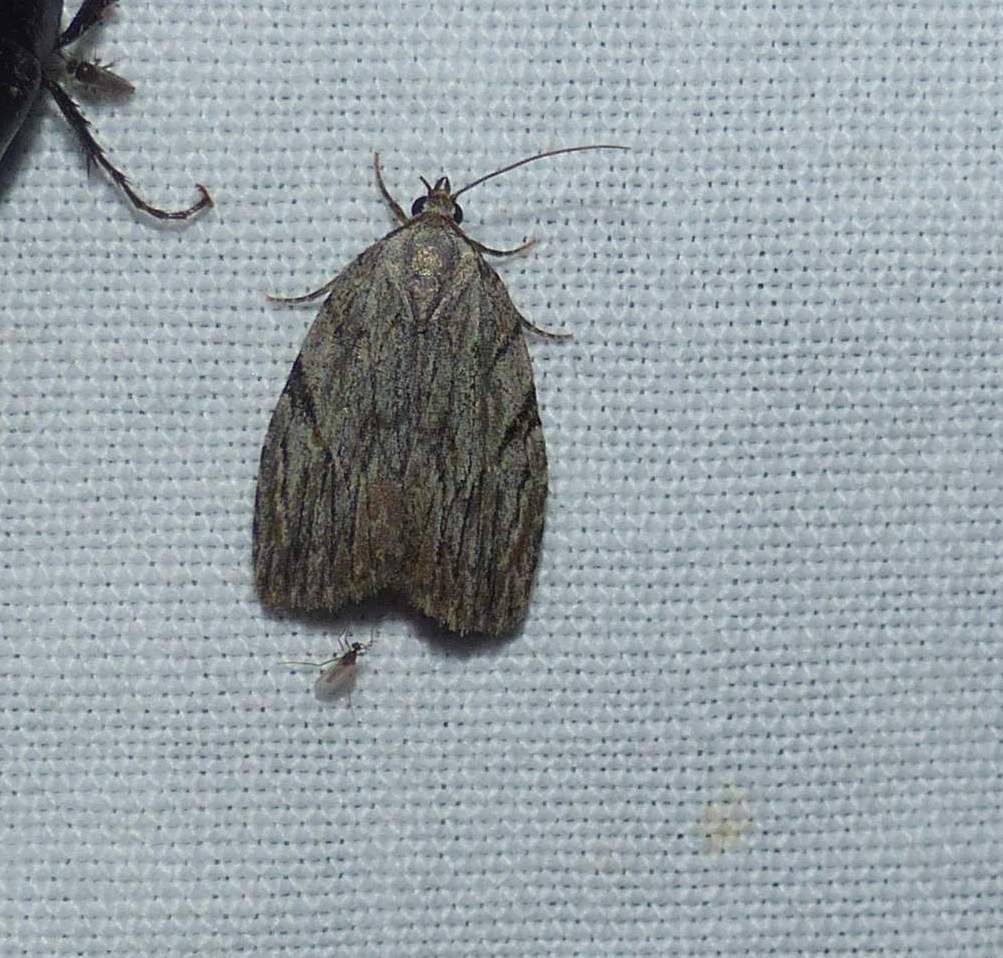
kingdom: Animalia
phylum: Arthropoda
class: Insecta
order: Lepidoptera
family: Noctuidae
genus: Balsa
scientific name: Balsa tristrigella
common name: Three-lined balsa moth
